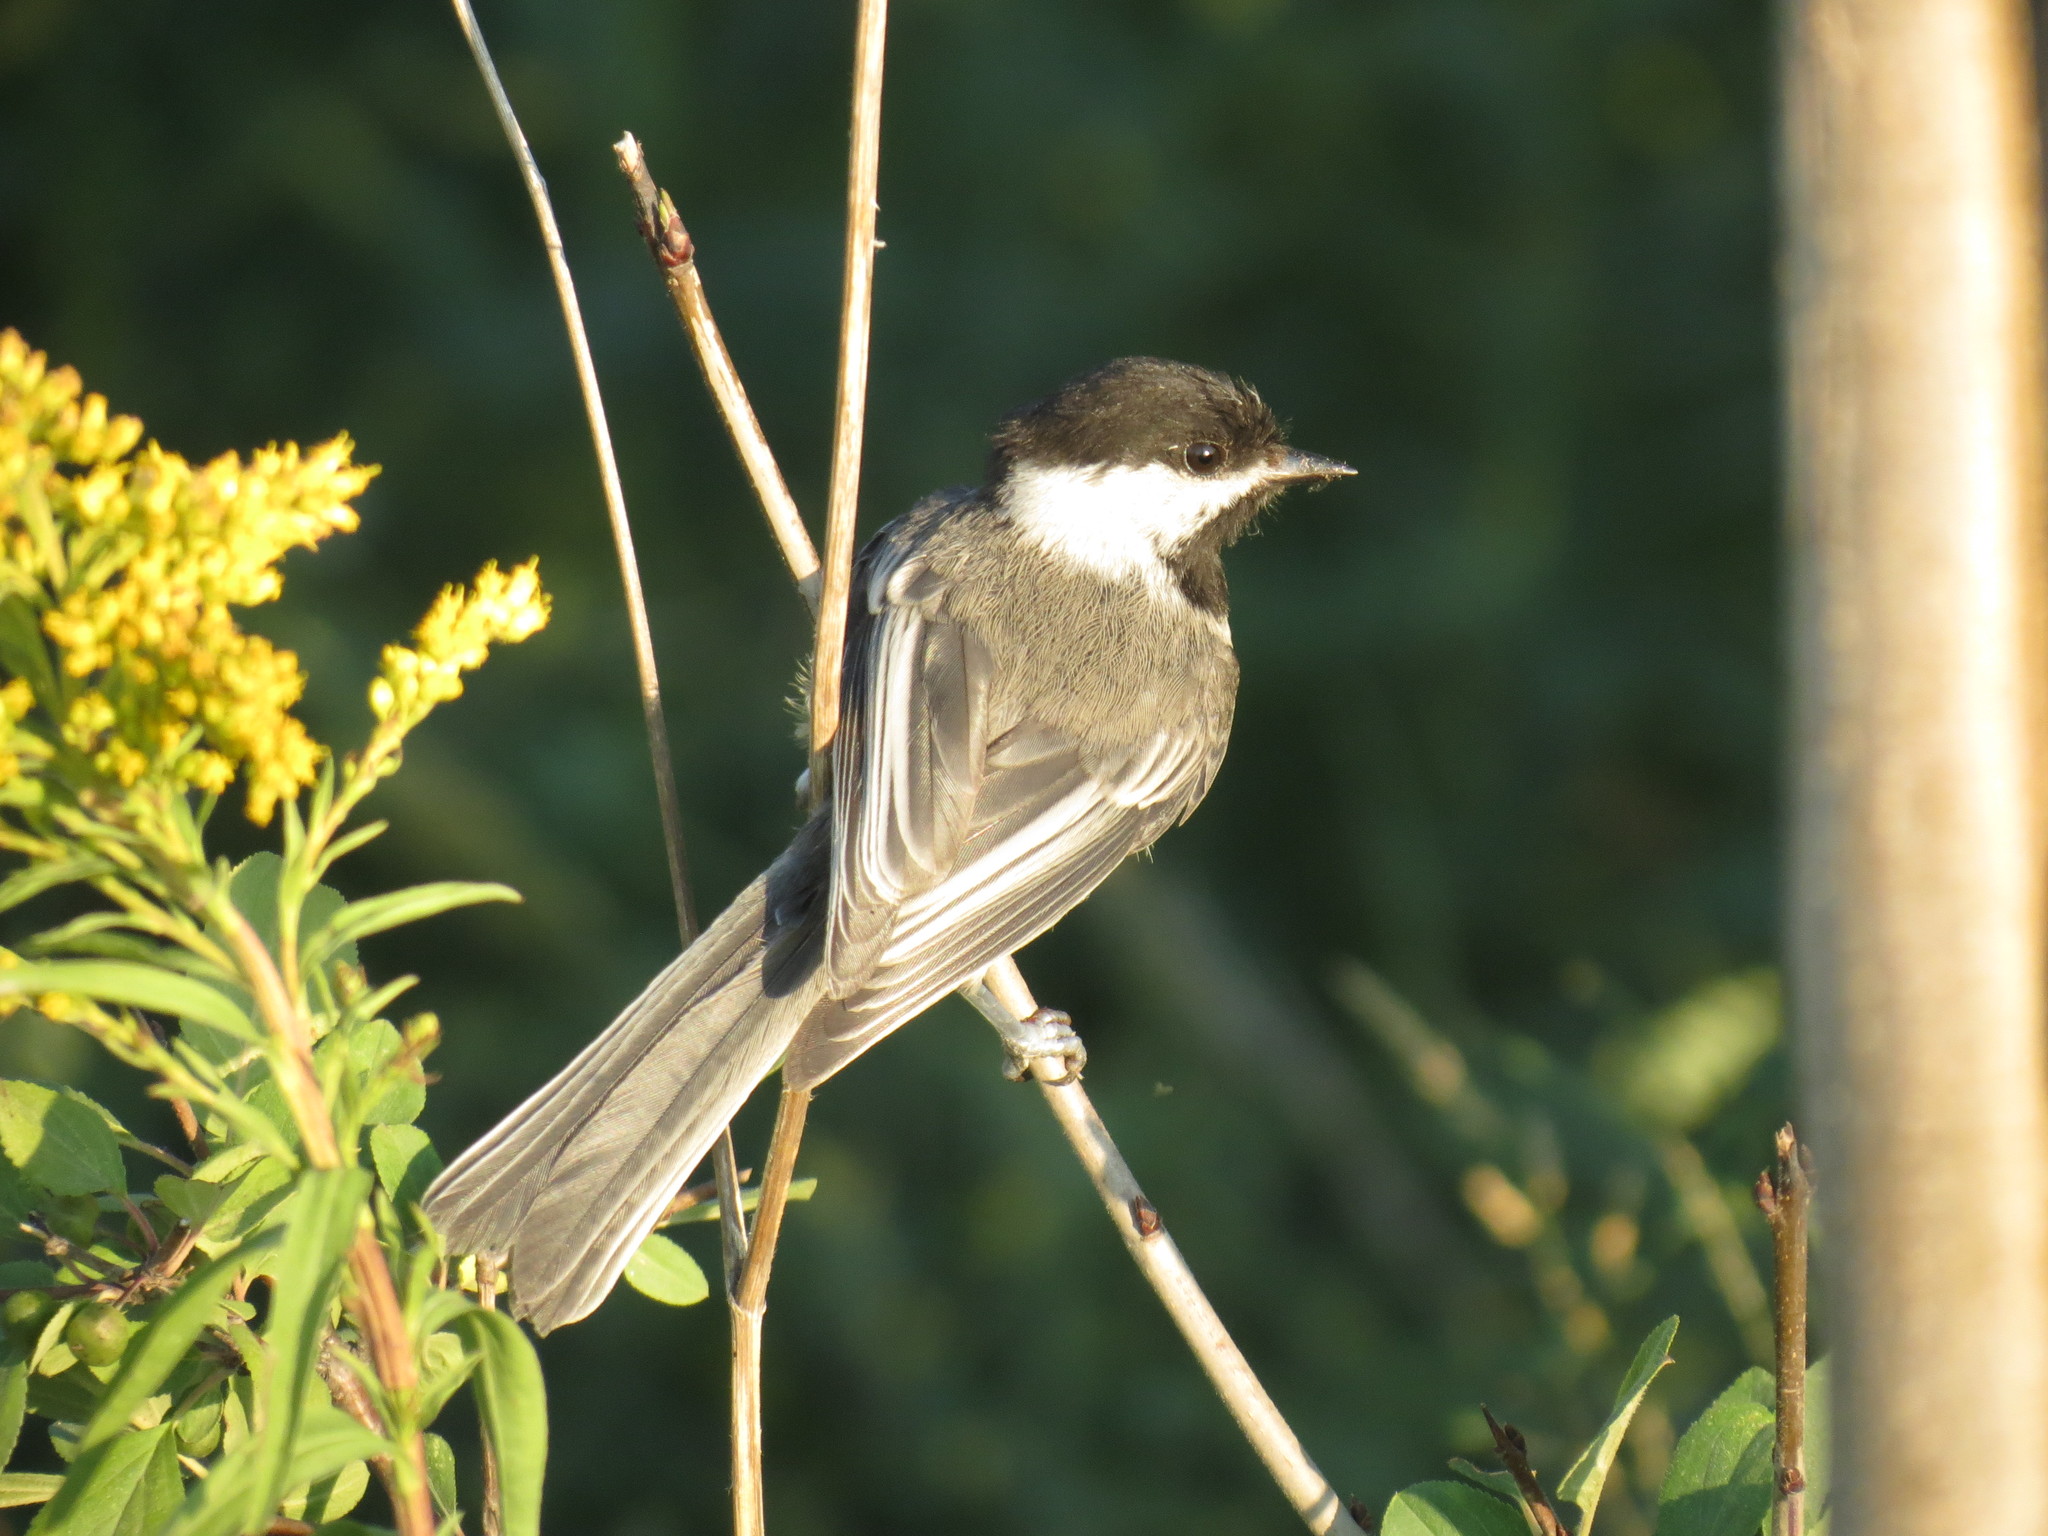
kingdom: Animalia
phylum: Chordata
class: Aves
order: Passeriformes
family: Paridae
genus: Poecile
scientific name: Poecile atricapillus
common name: Black-capped chickadee
